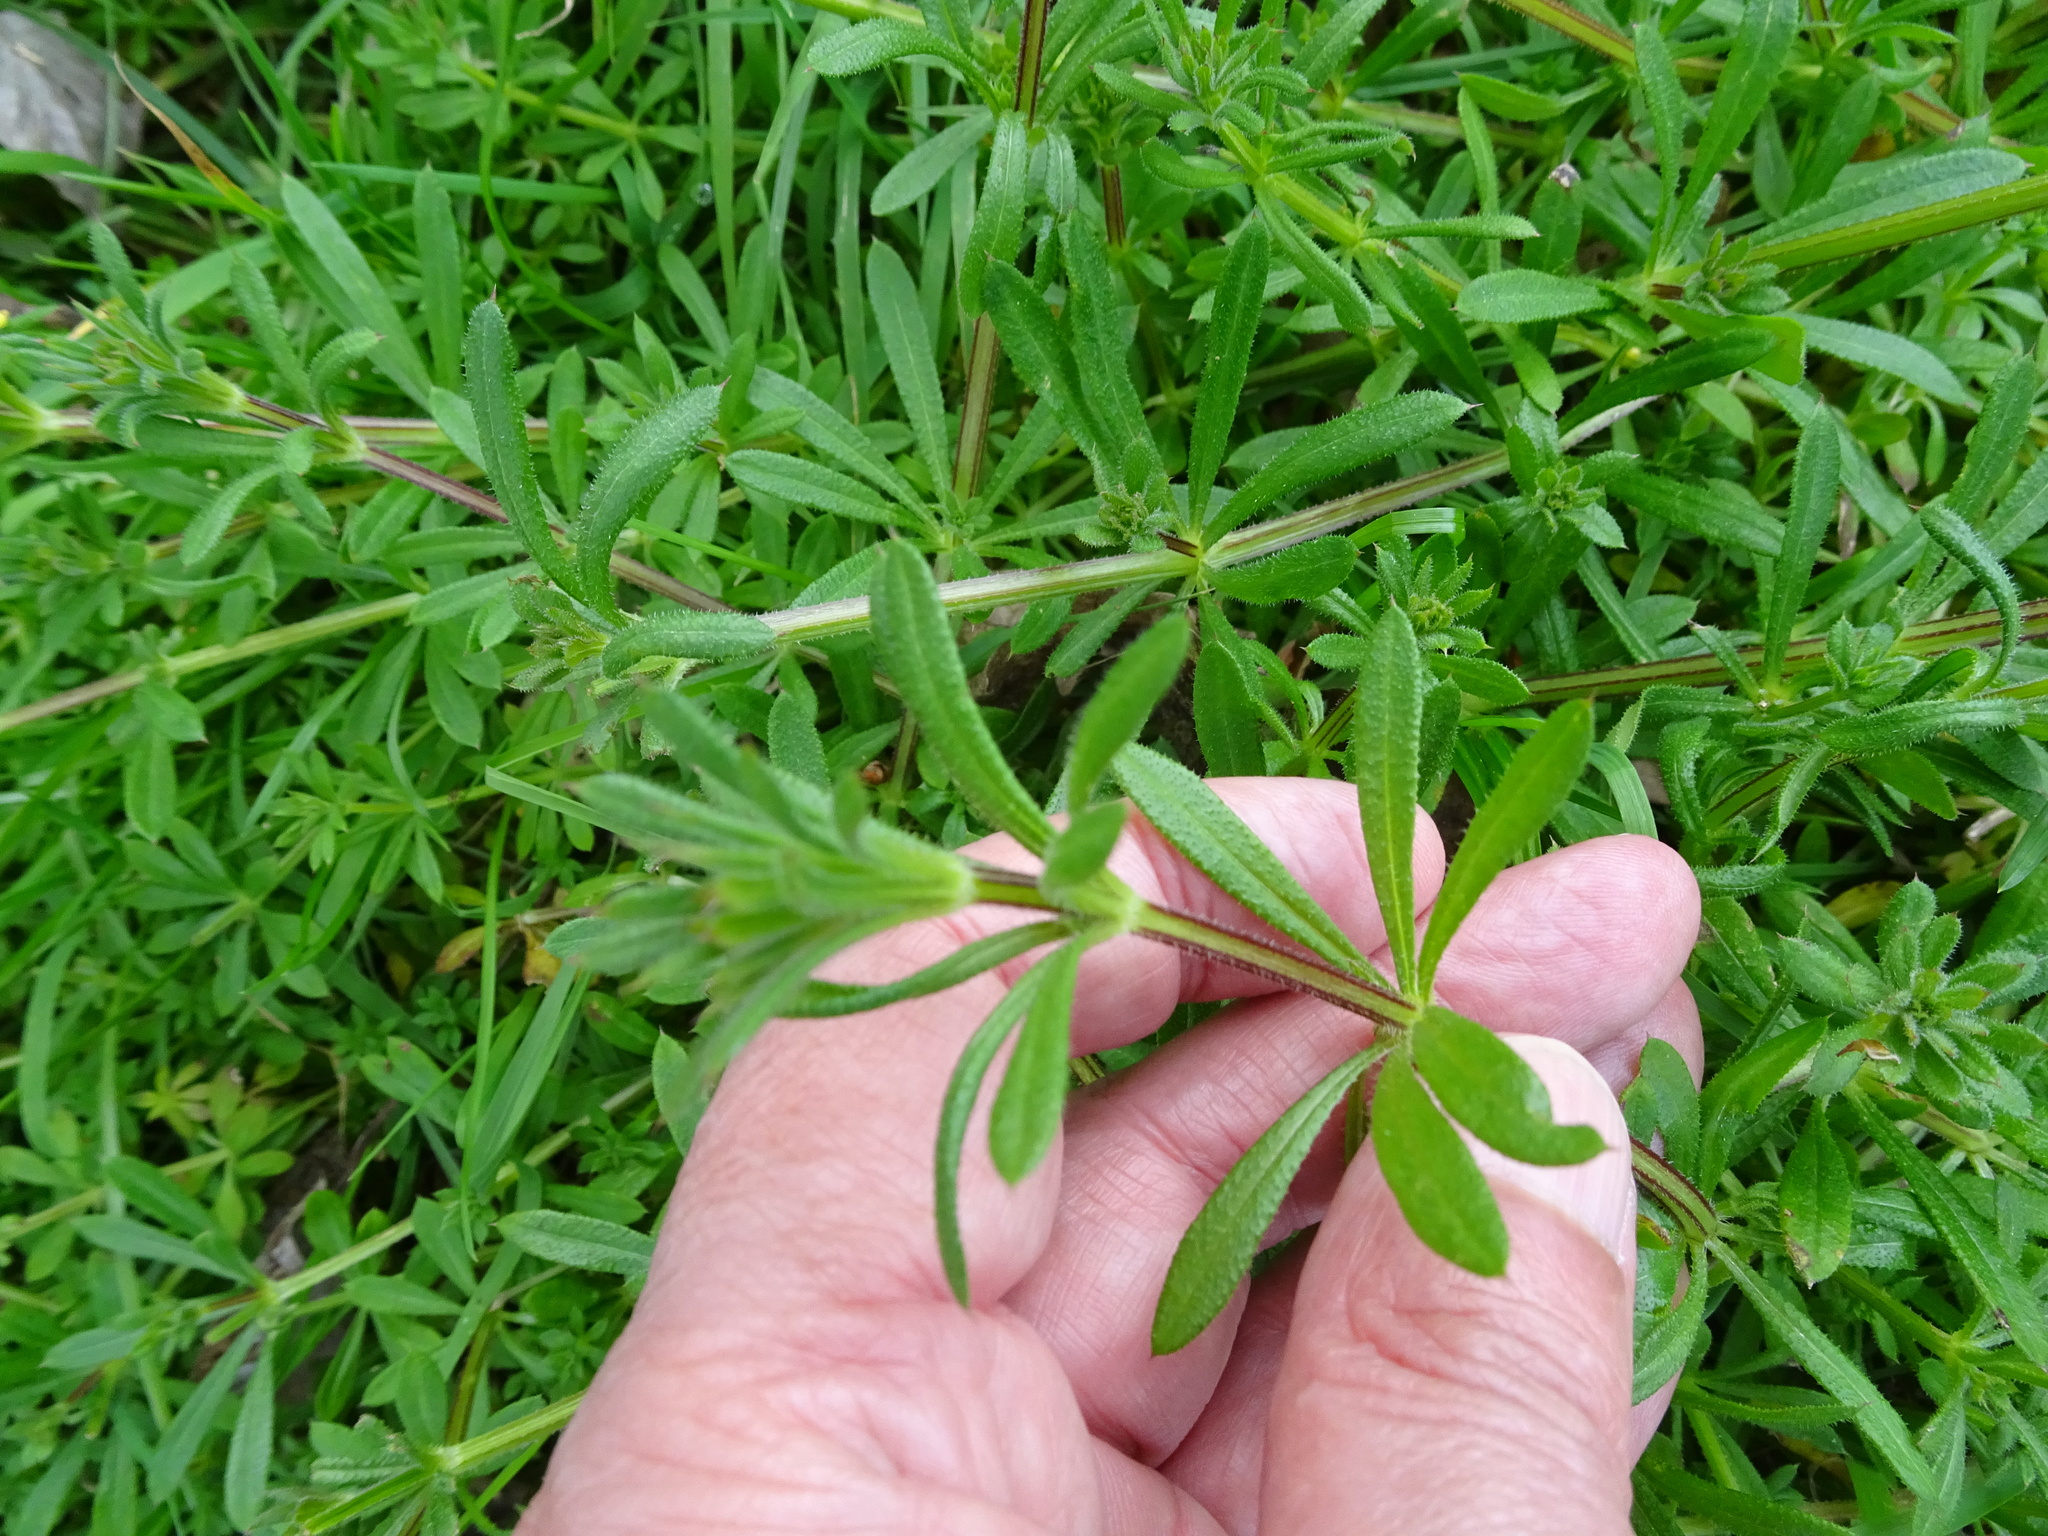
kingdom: Plantae
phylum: Tracheophyta
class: Magnoliopsida
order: Gentianales
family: Rubiaceae
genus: Galium
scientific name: Galium aparine
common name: Cleavers
